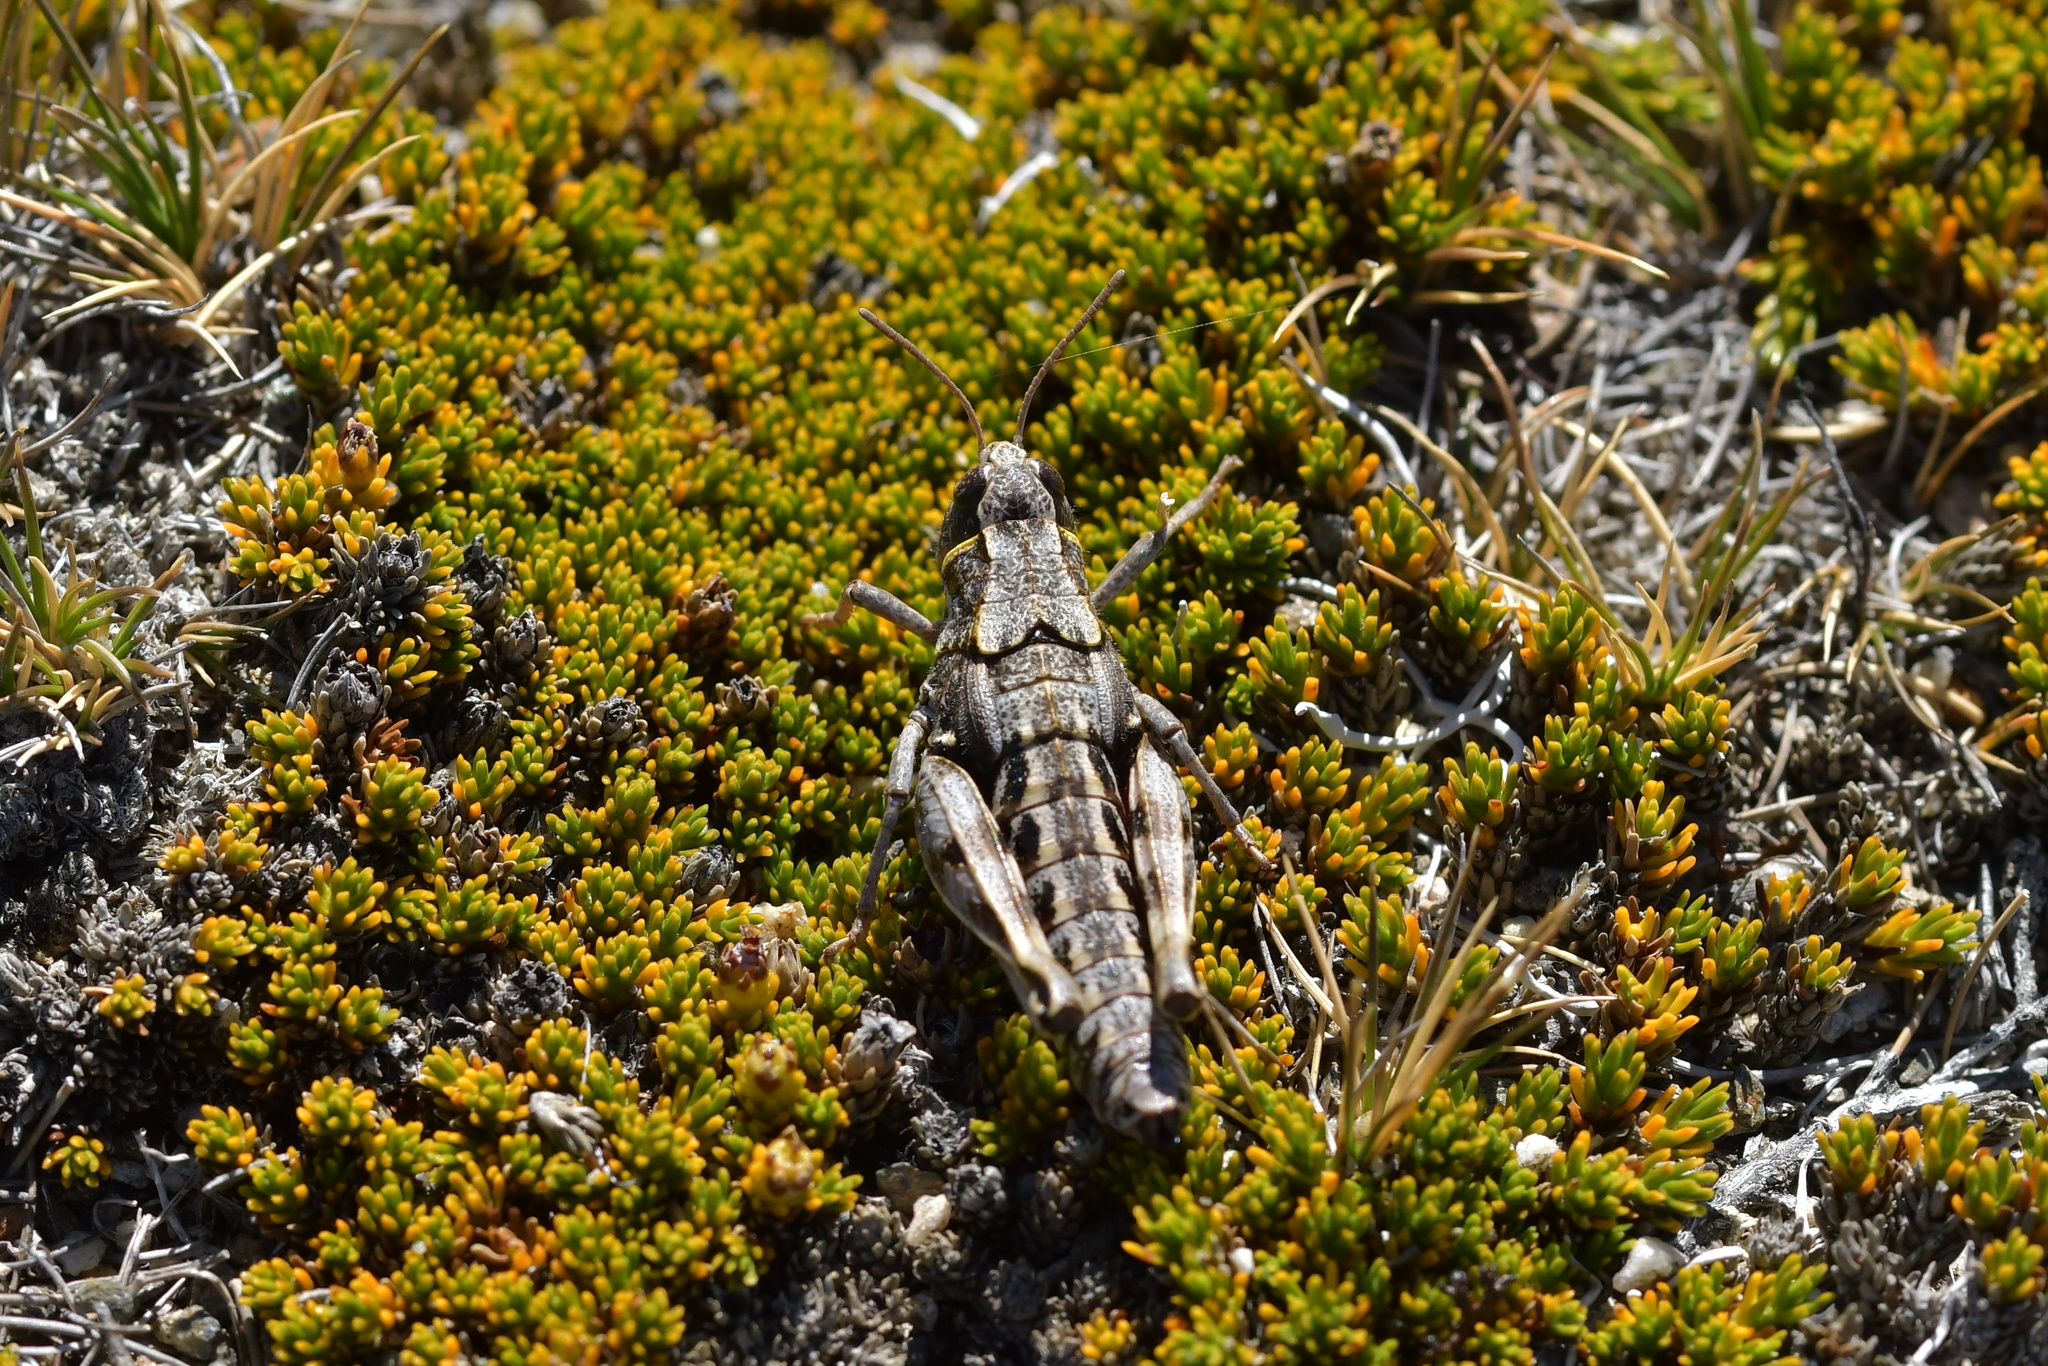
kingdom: Animalia
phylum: Arthropoda
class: Insecta
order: Orthoptera
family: Acrididae
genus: Sigaus
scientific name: Sigaus australis
